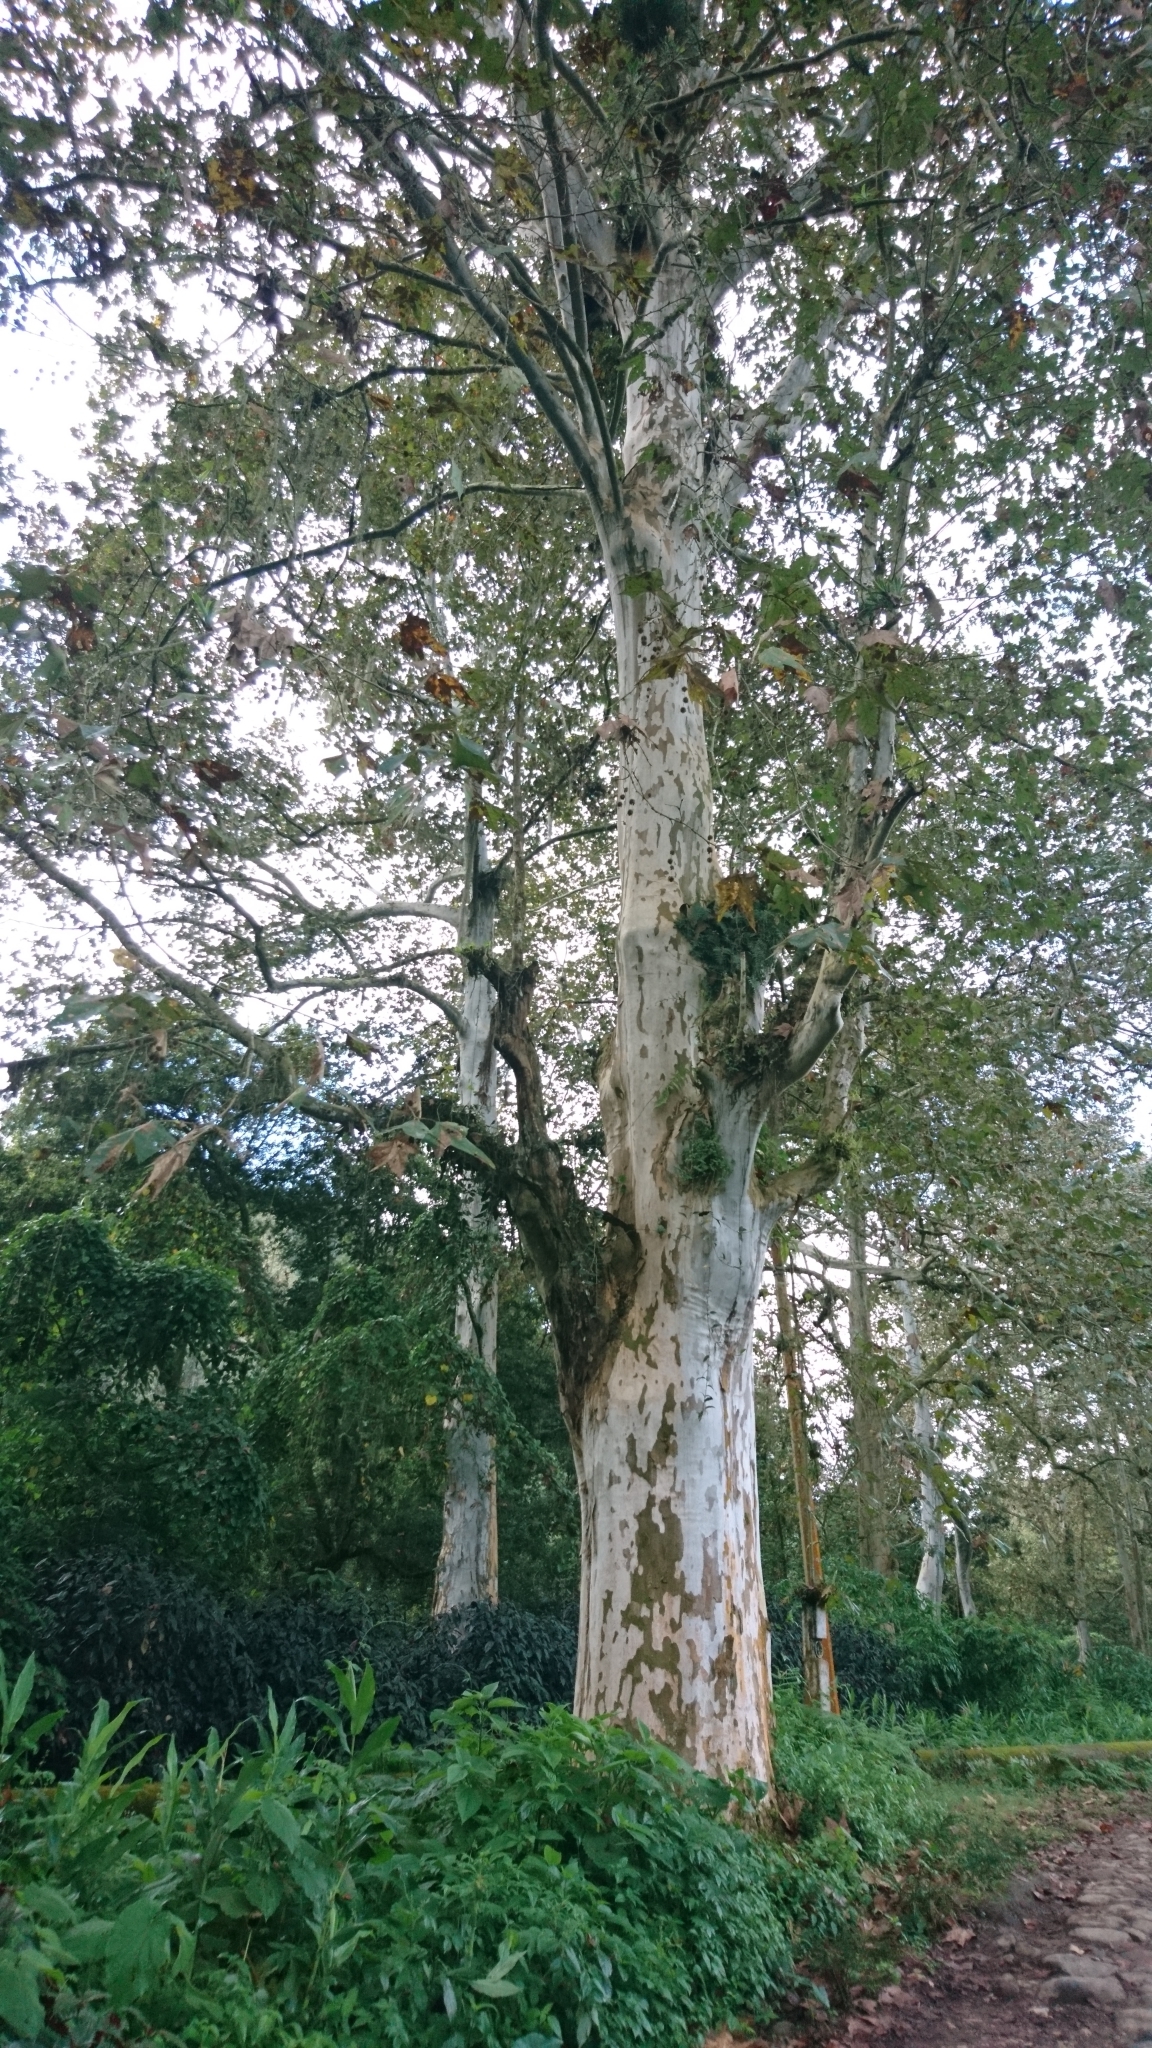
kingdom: Plantae
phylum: Tracheophyta
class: Magnoliopsida
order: Proteales
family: Platanaceae
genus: Platanus
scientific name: Platanus mexicana
